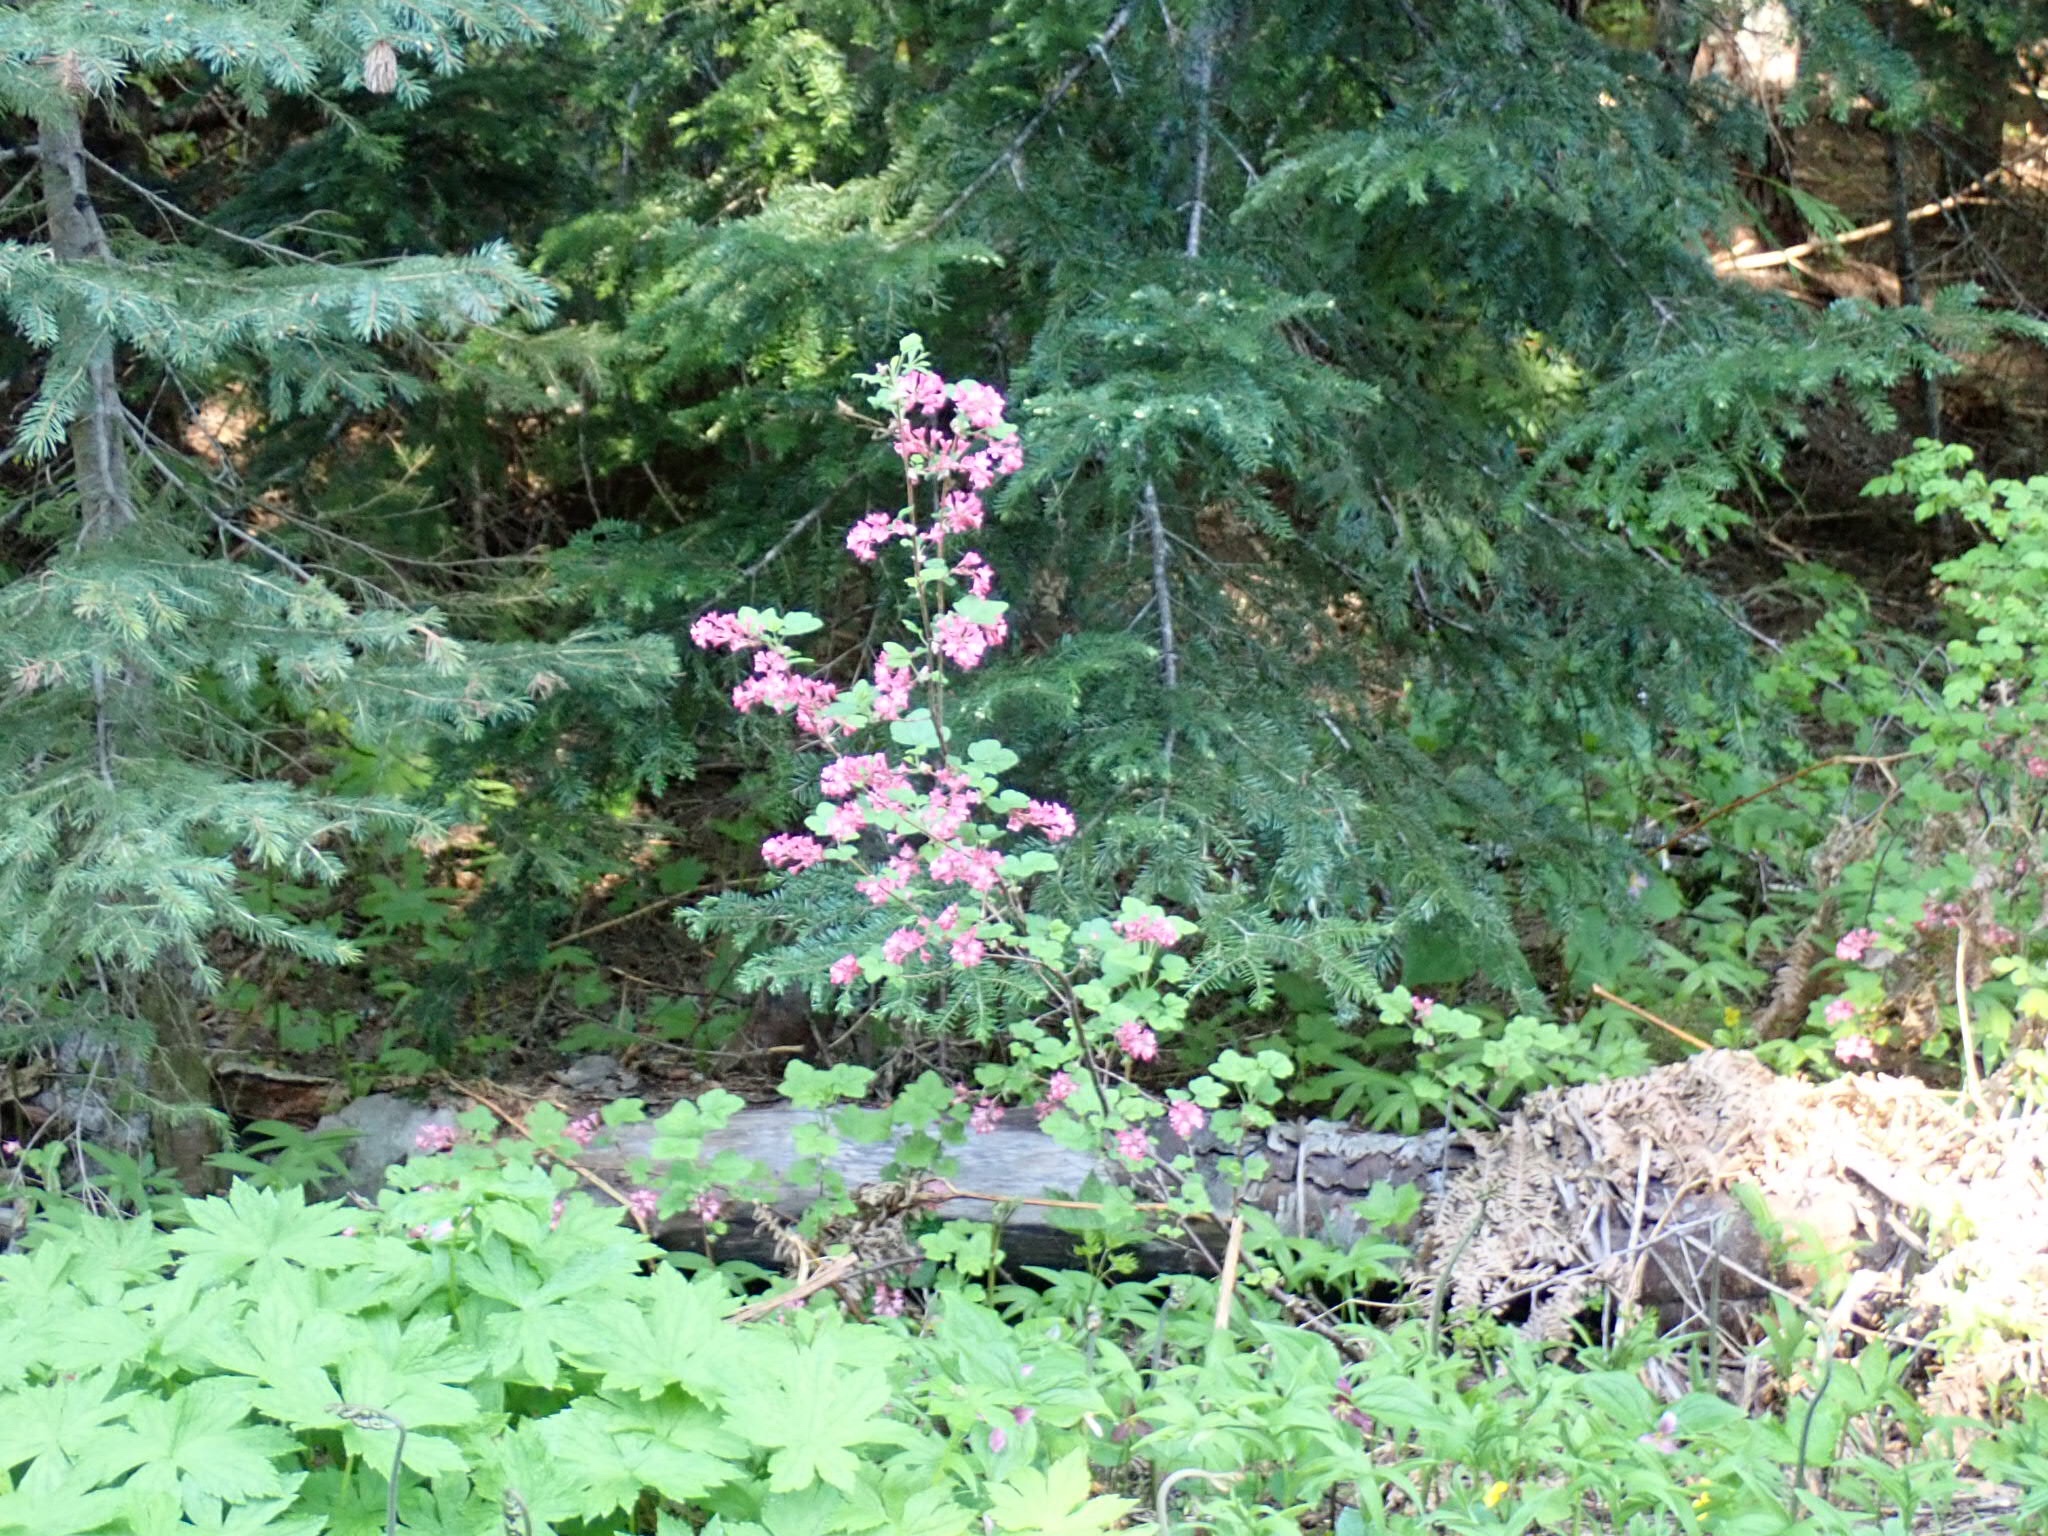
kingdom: Plantae
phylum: Tracheophyta
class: Magnoliopsida
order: Saxifragales
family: Grossulariaceae
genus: Ribes
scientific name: Ribes sanguineum
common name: Flowering currant
